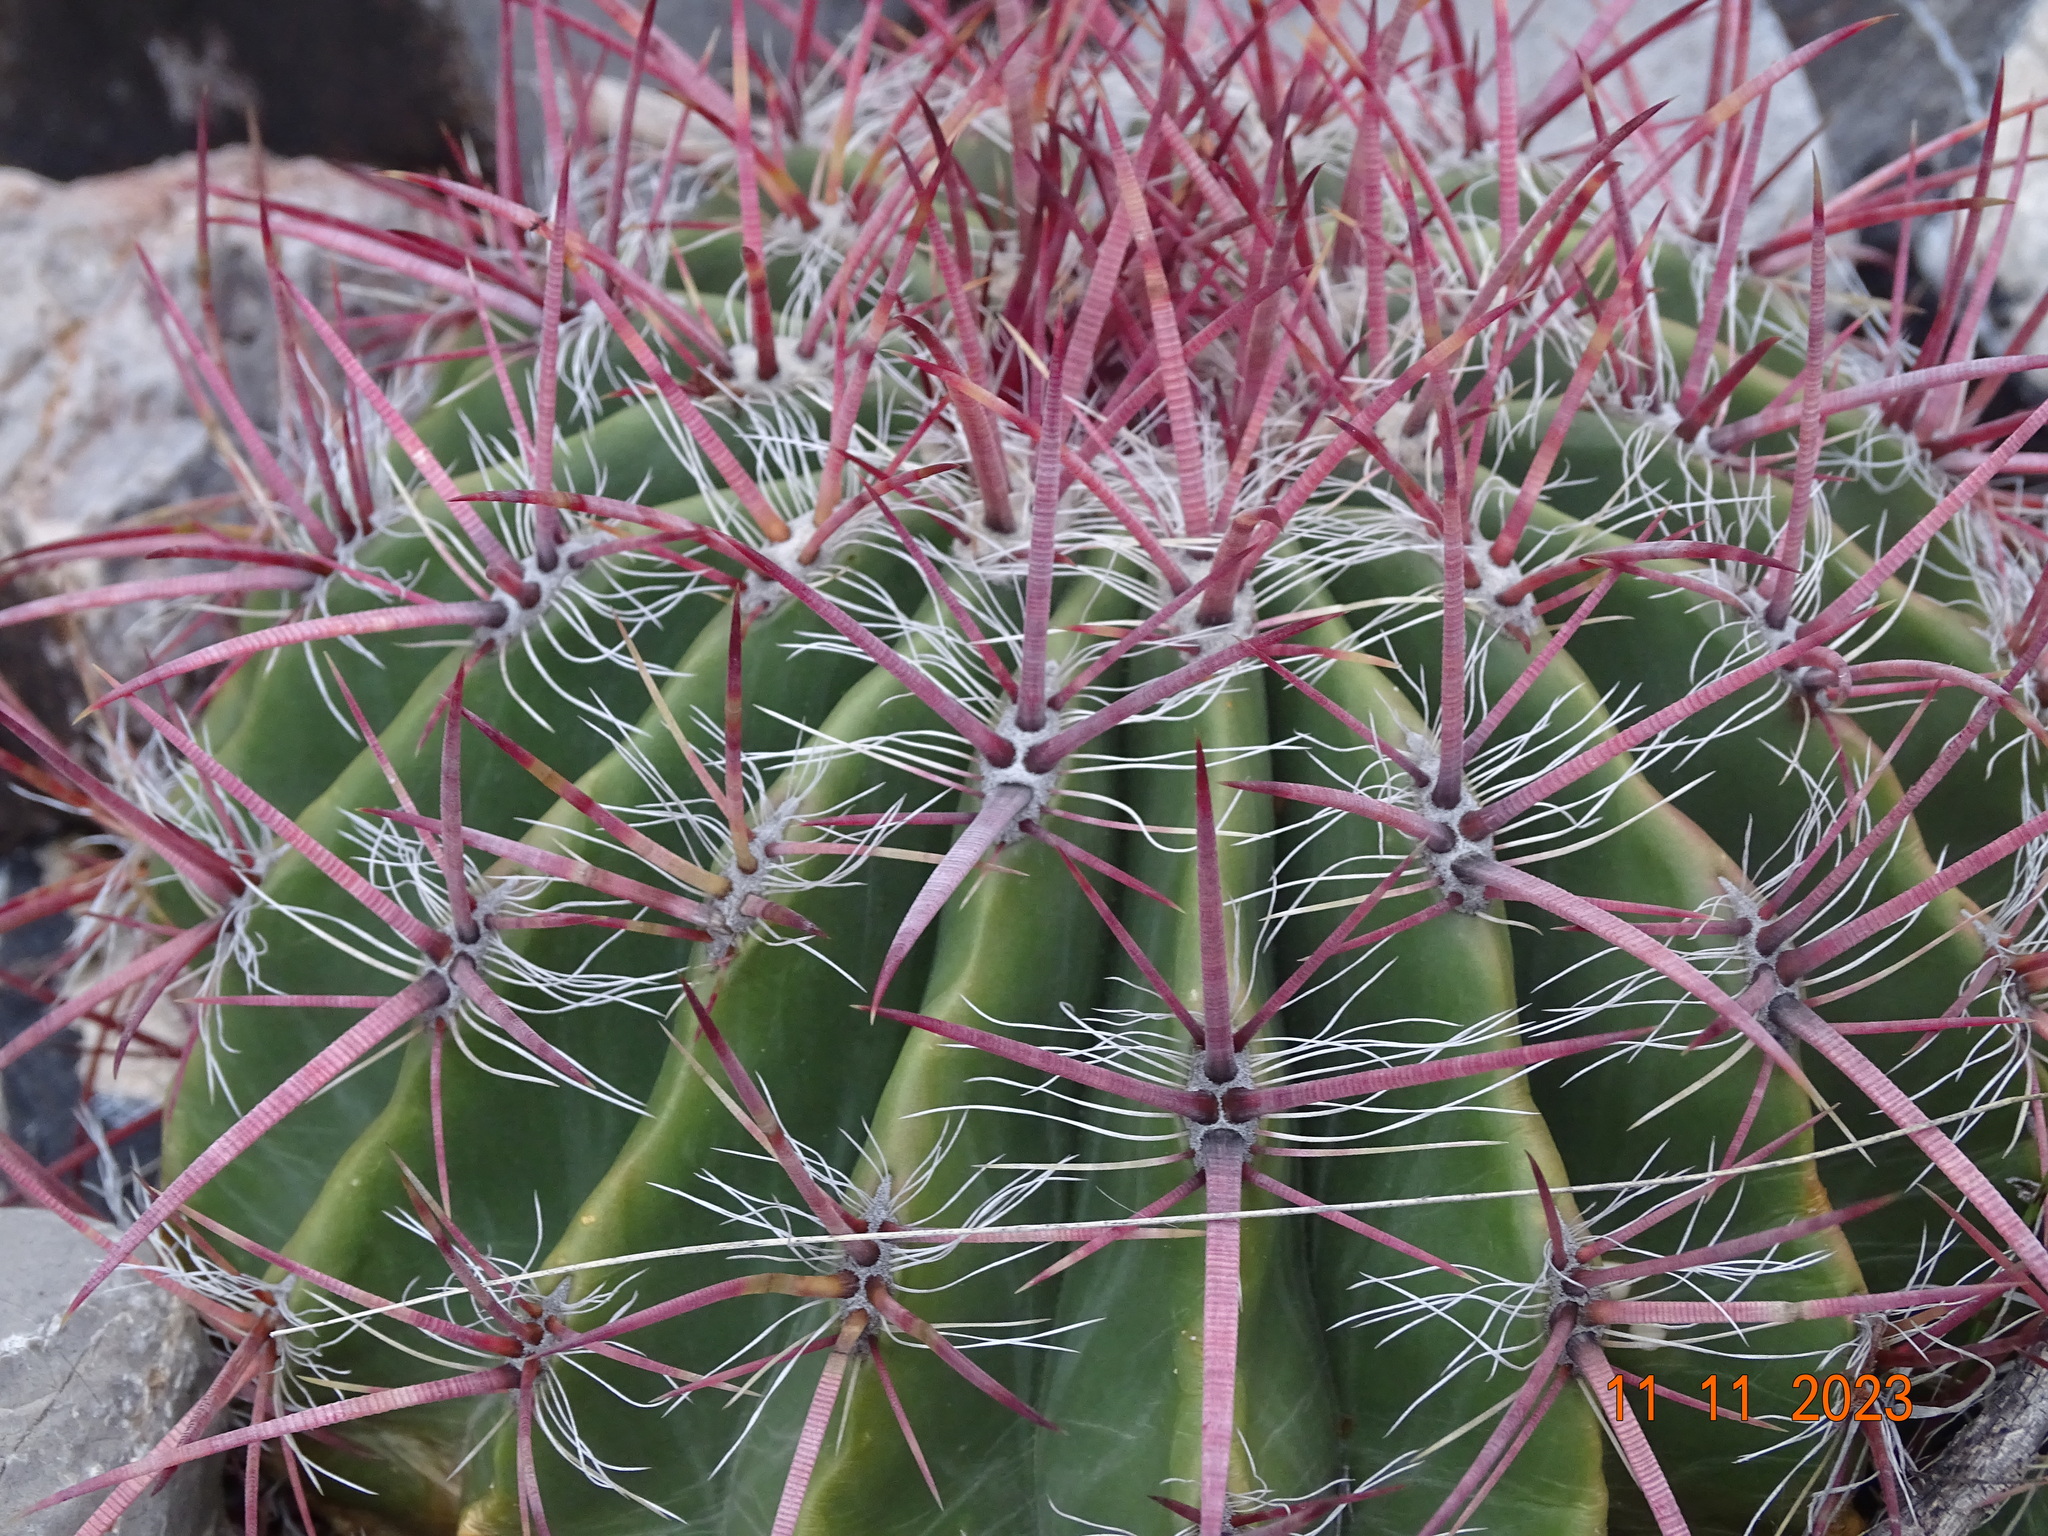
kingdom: Plantae
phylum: Tracheophyta
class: Magnoliopsida
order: Caryophyllales
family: Cactaceae
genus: Ferocactus
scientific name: Ferocactus pilosus
